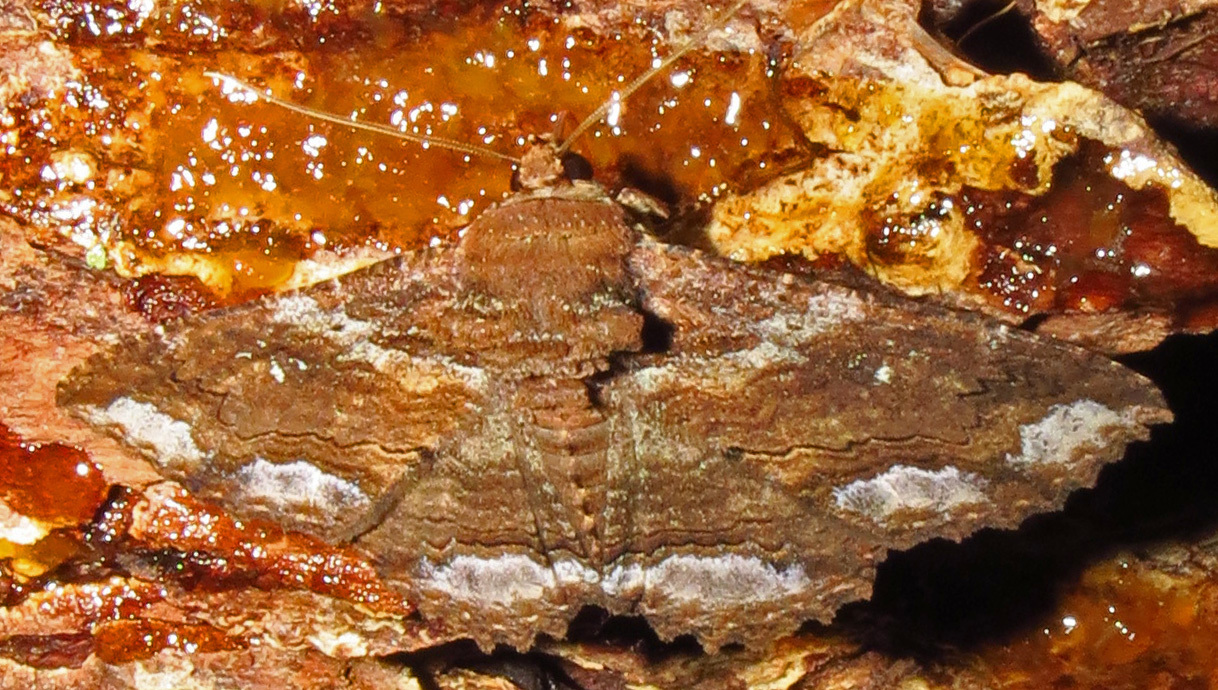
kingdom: Animalia
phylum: Arthropoda
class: Insecta
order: Lepidoptera
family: Erebidae
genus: Zale
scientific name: Zale lunata
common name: Lunate zale moth
